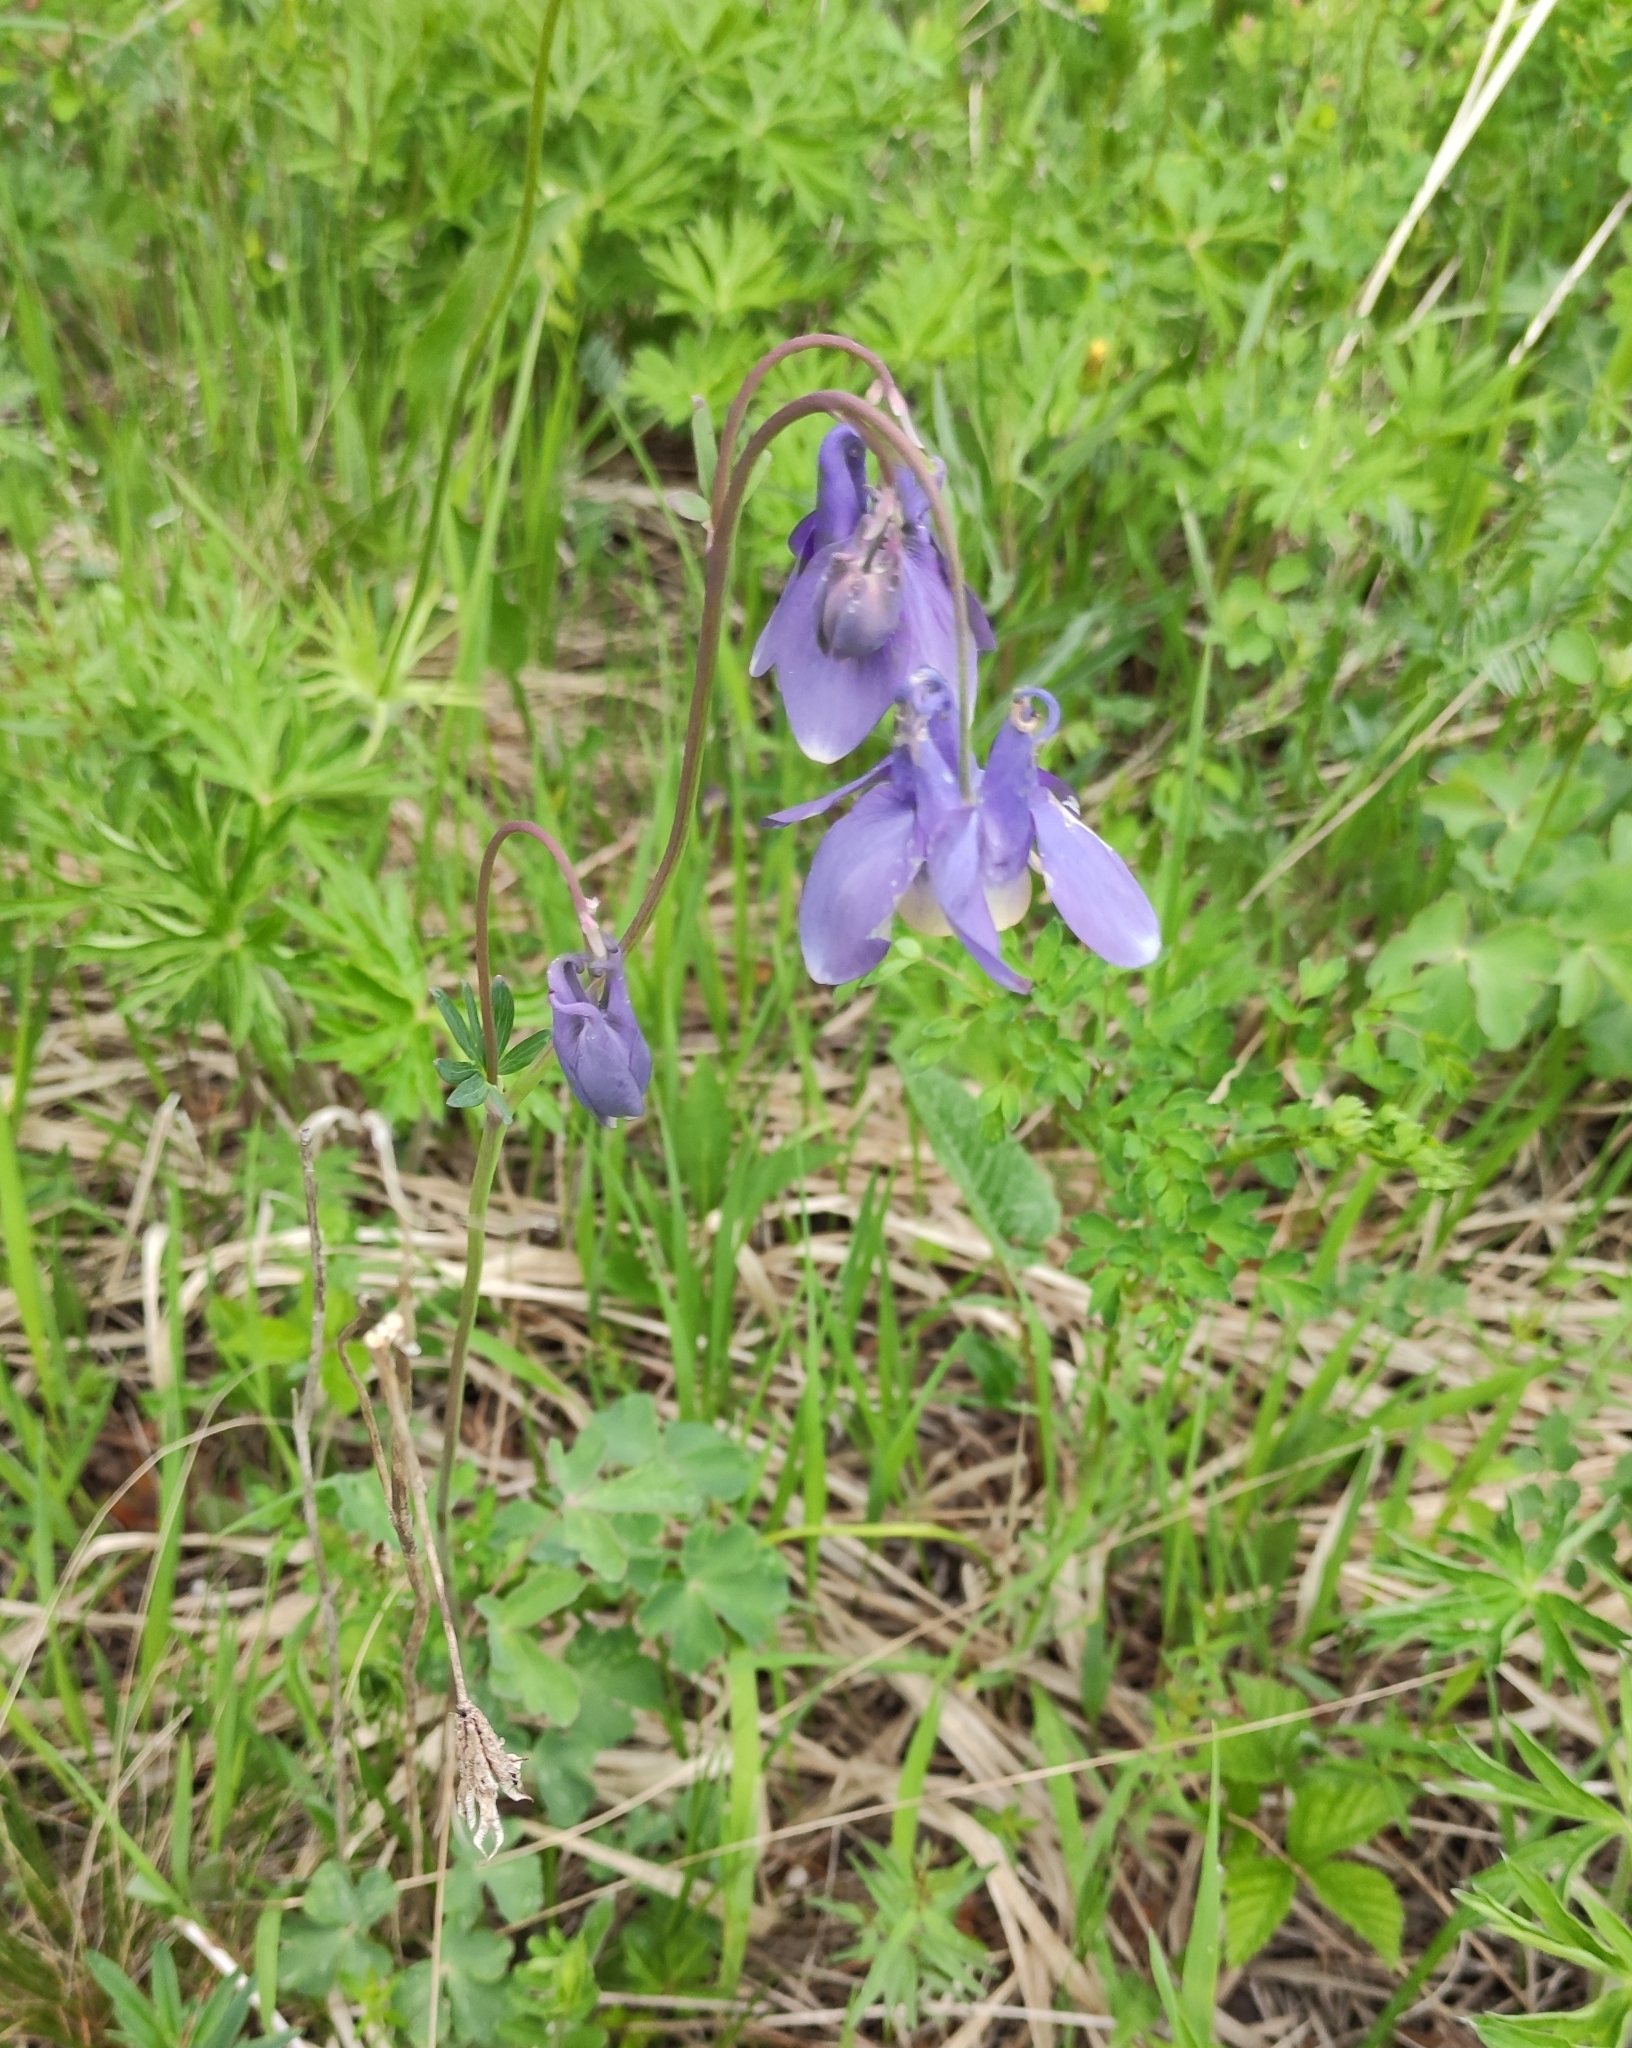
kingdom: Plantae
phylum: Tracheophyta
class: Magnoliopsida
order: Ranunculales
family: Ranunculaceae
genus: Aquilegia
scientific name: Aquilegia sibirica
